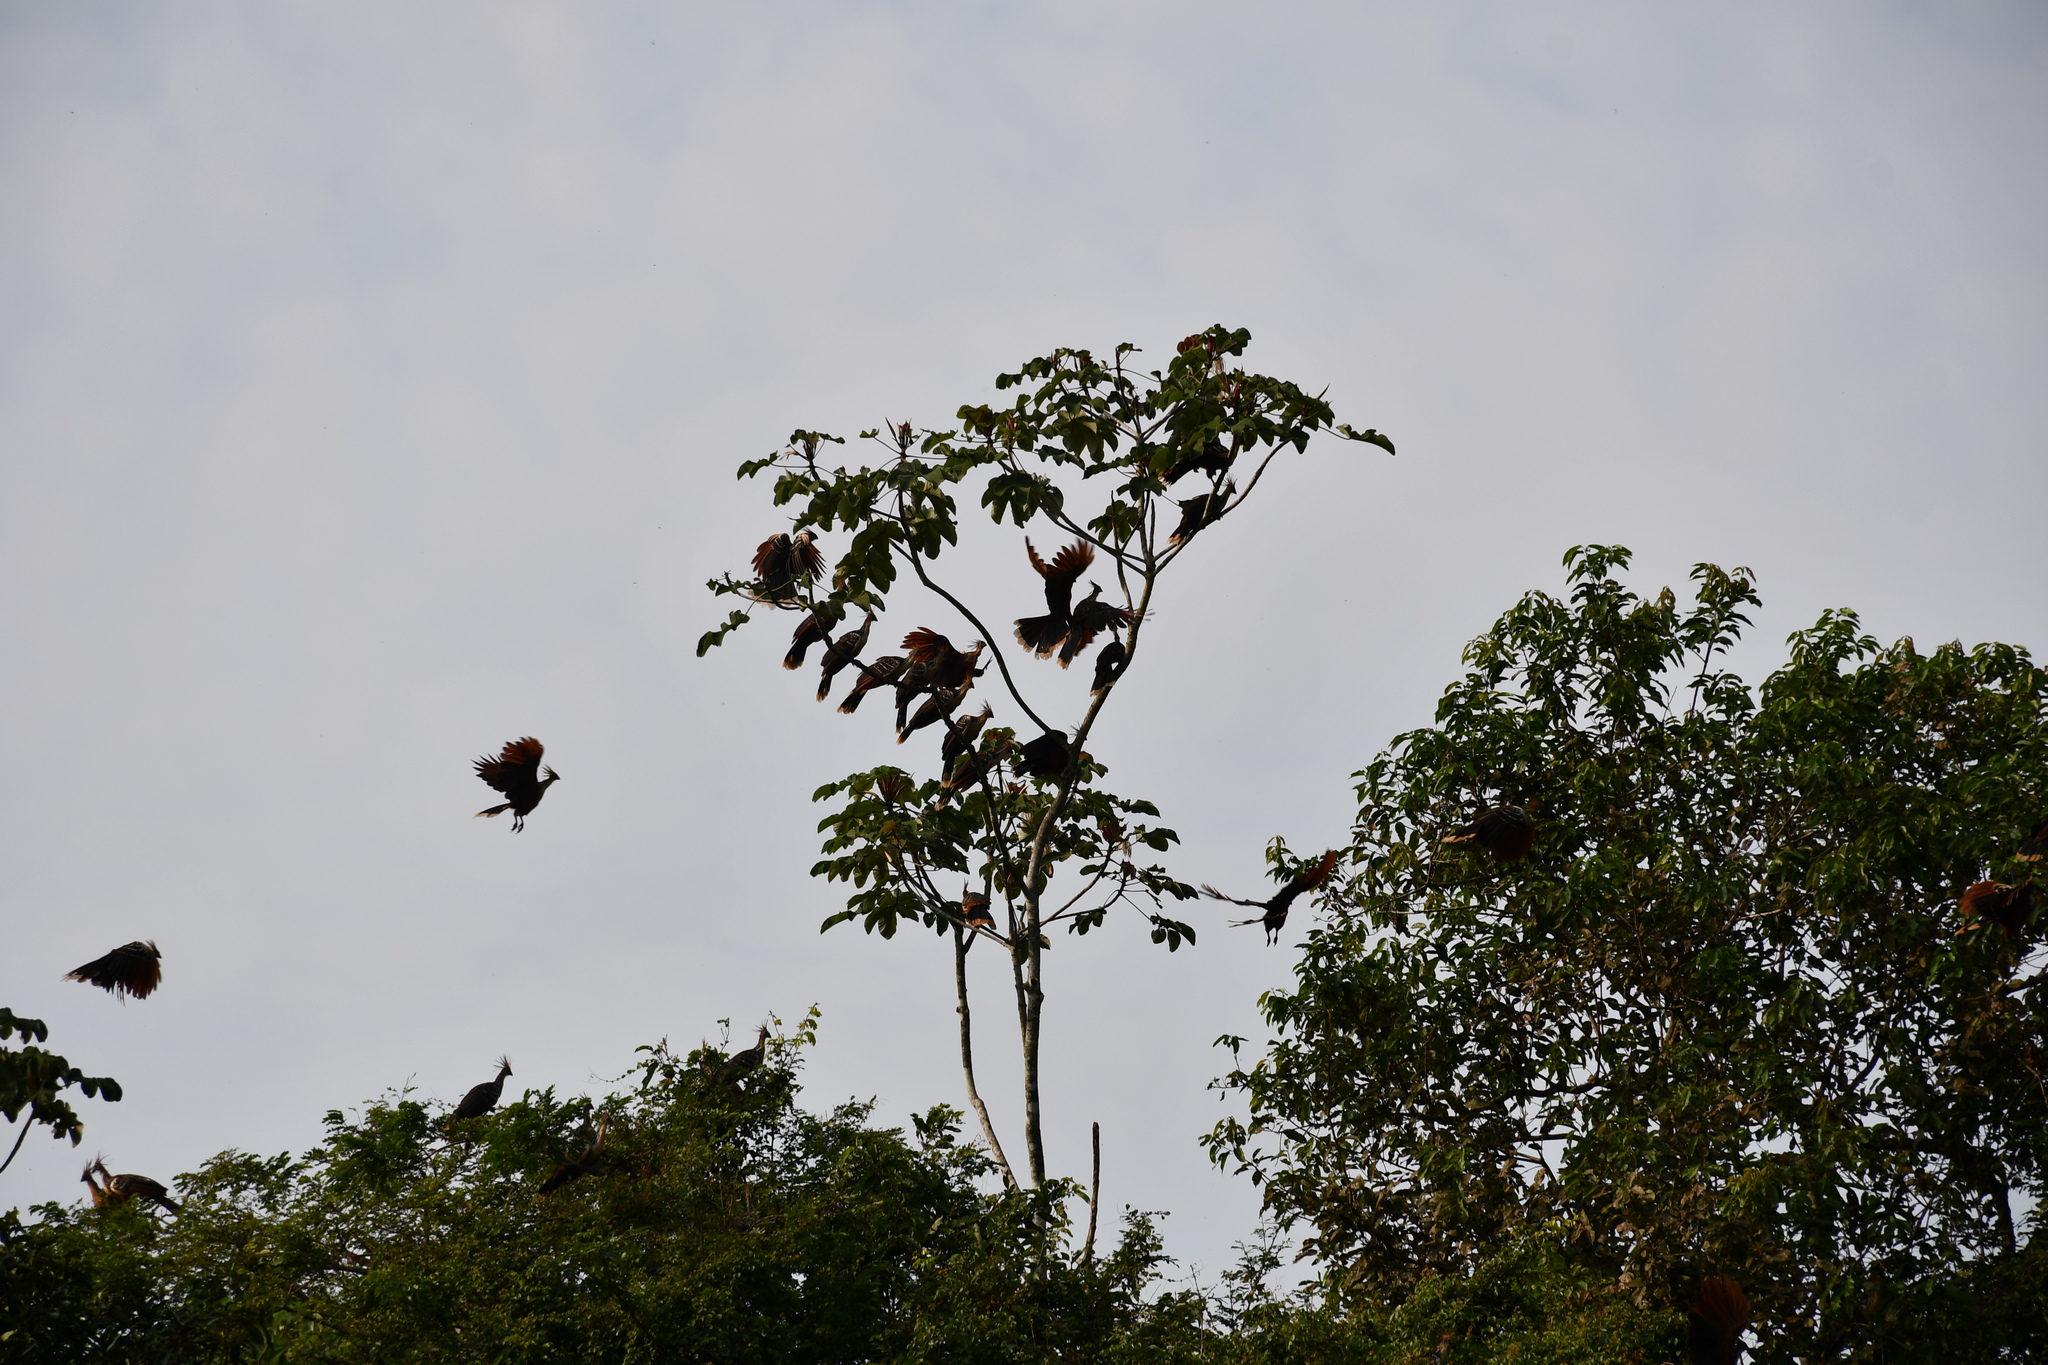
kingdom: Animalia
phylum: Chordata
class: Aves
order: Opisthocomiformes
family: Opisthocomidae
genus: Opisthocomus
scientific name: Opisthocomus hoazin
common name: Hoatzin
